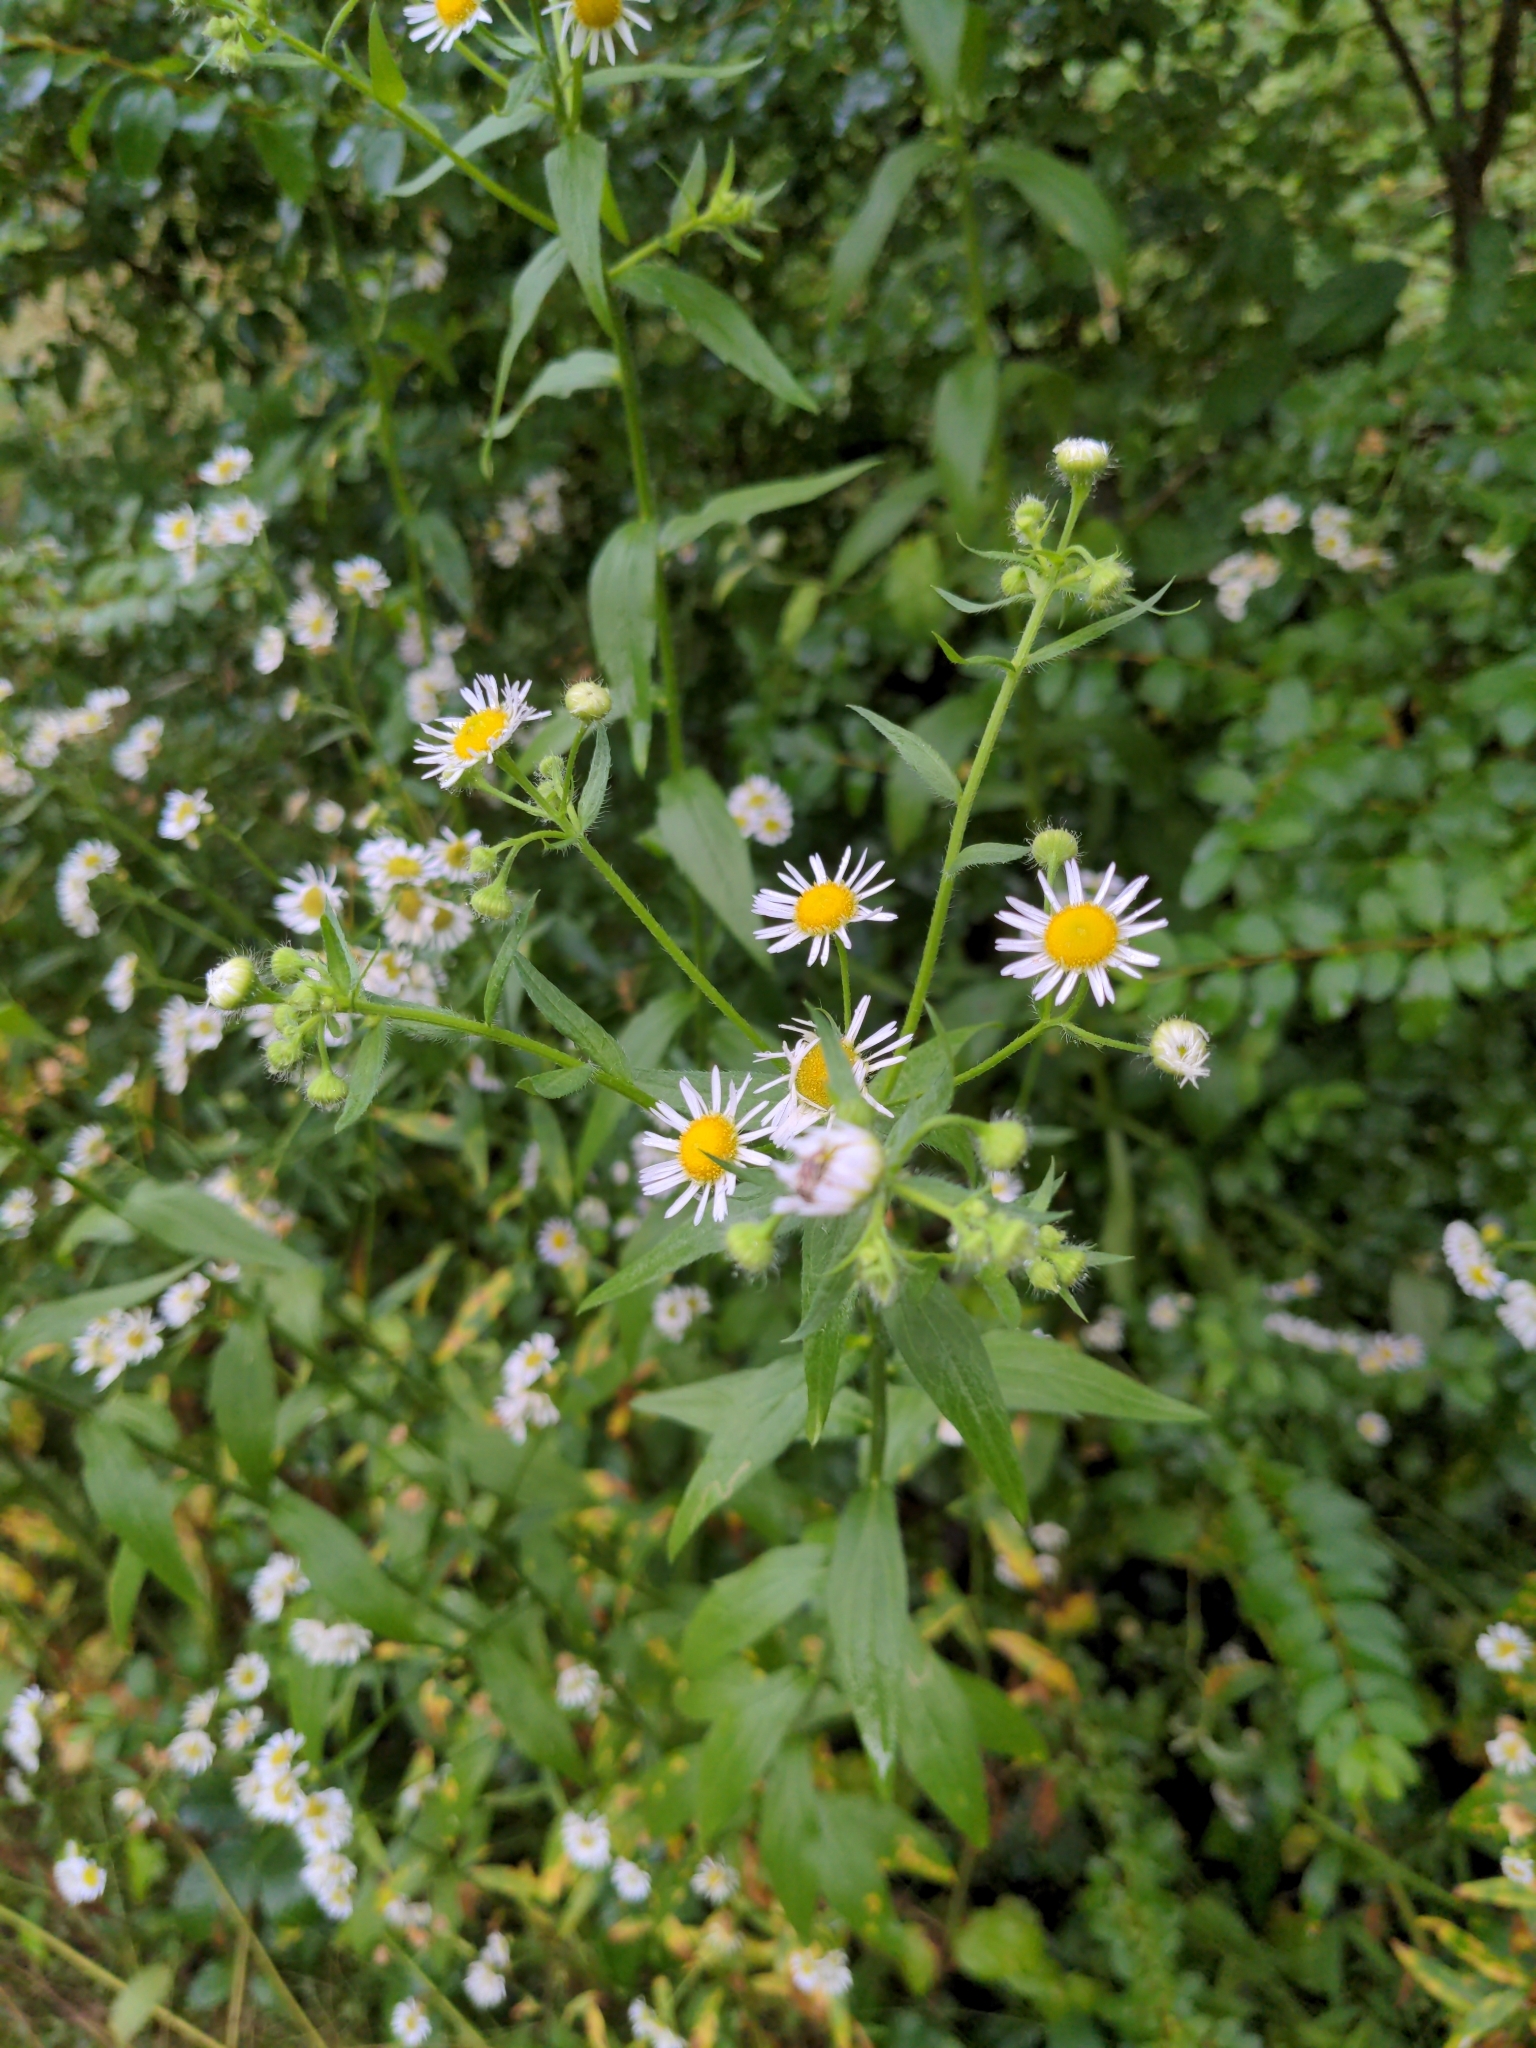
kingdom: Plantae
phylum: Tracheophyta
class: Magnoliopsida
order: Asterales
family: Asteraceae
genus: Erigeron
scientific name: Erigeron annuus
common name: Tall fleabane
